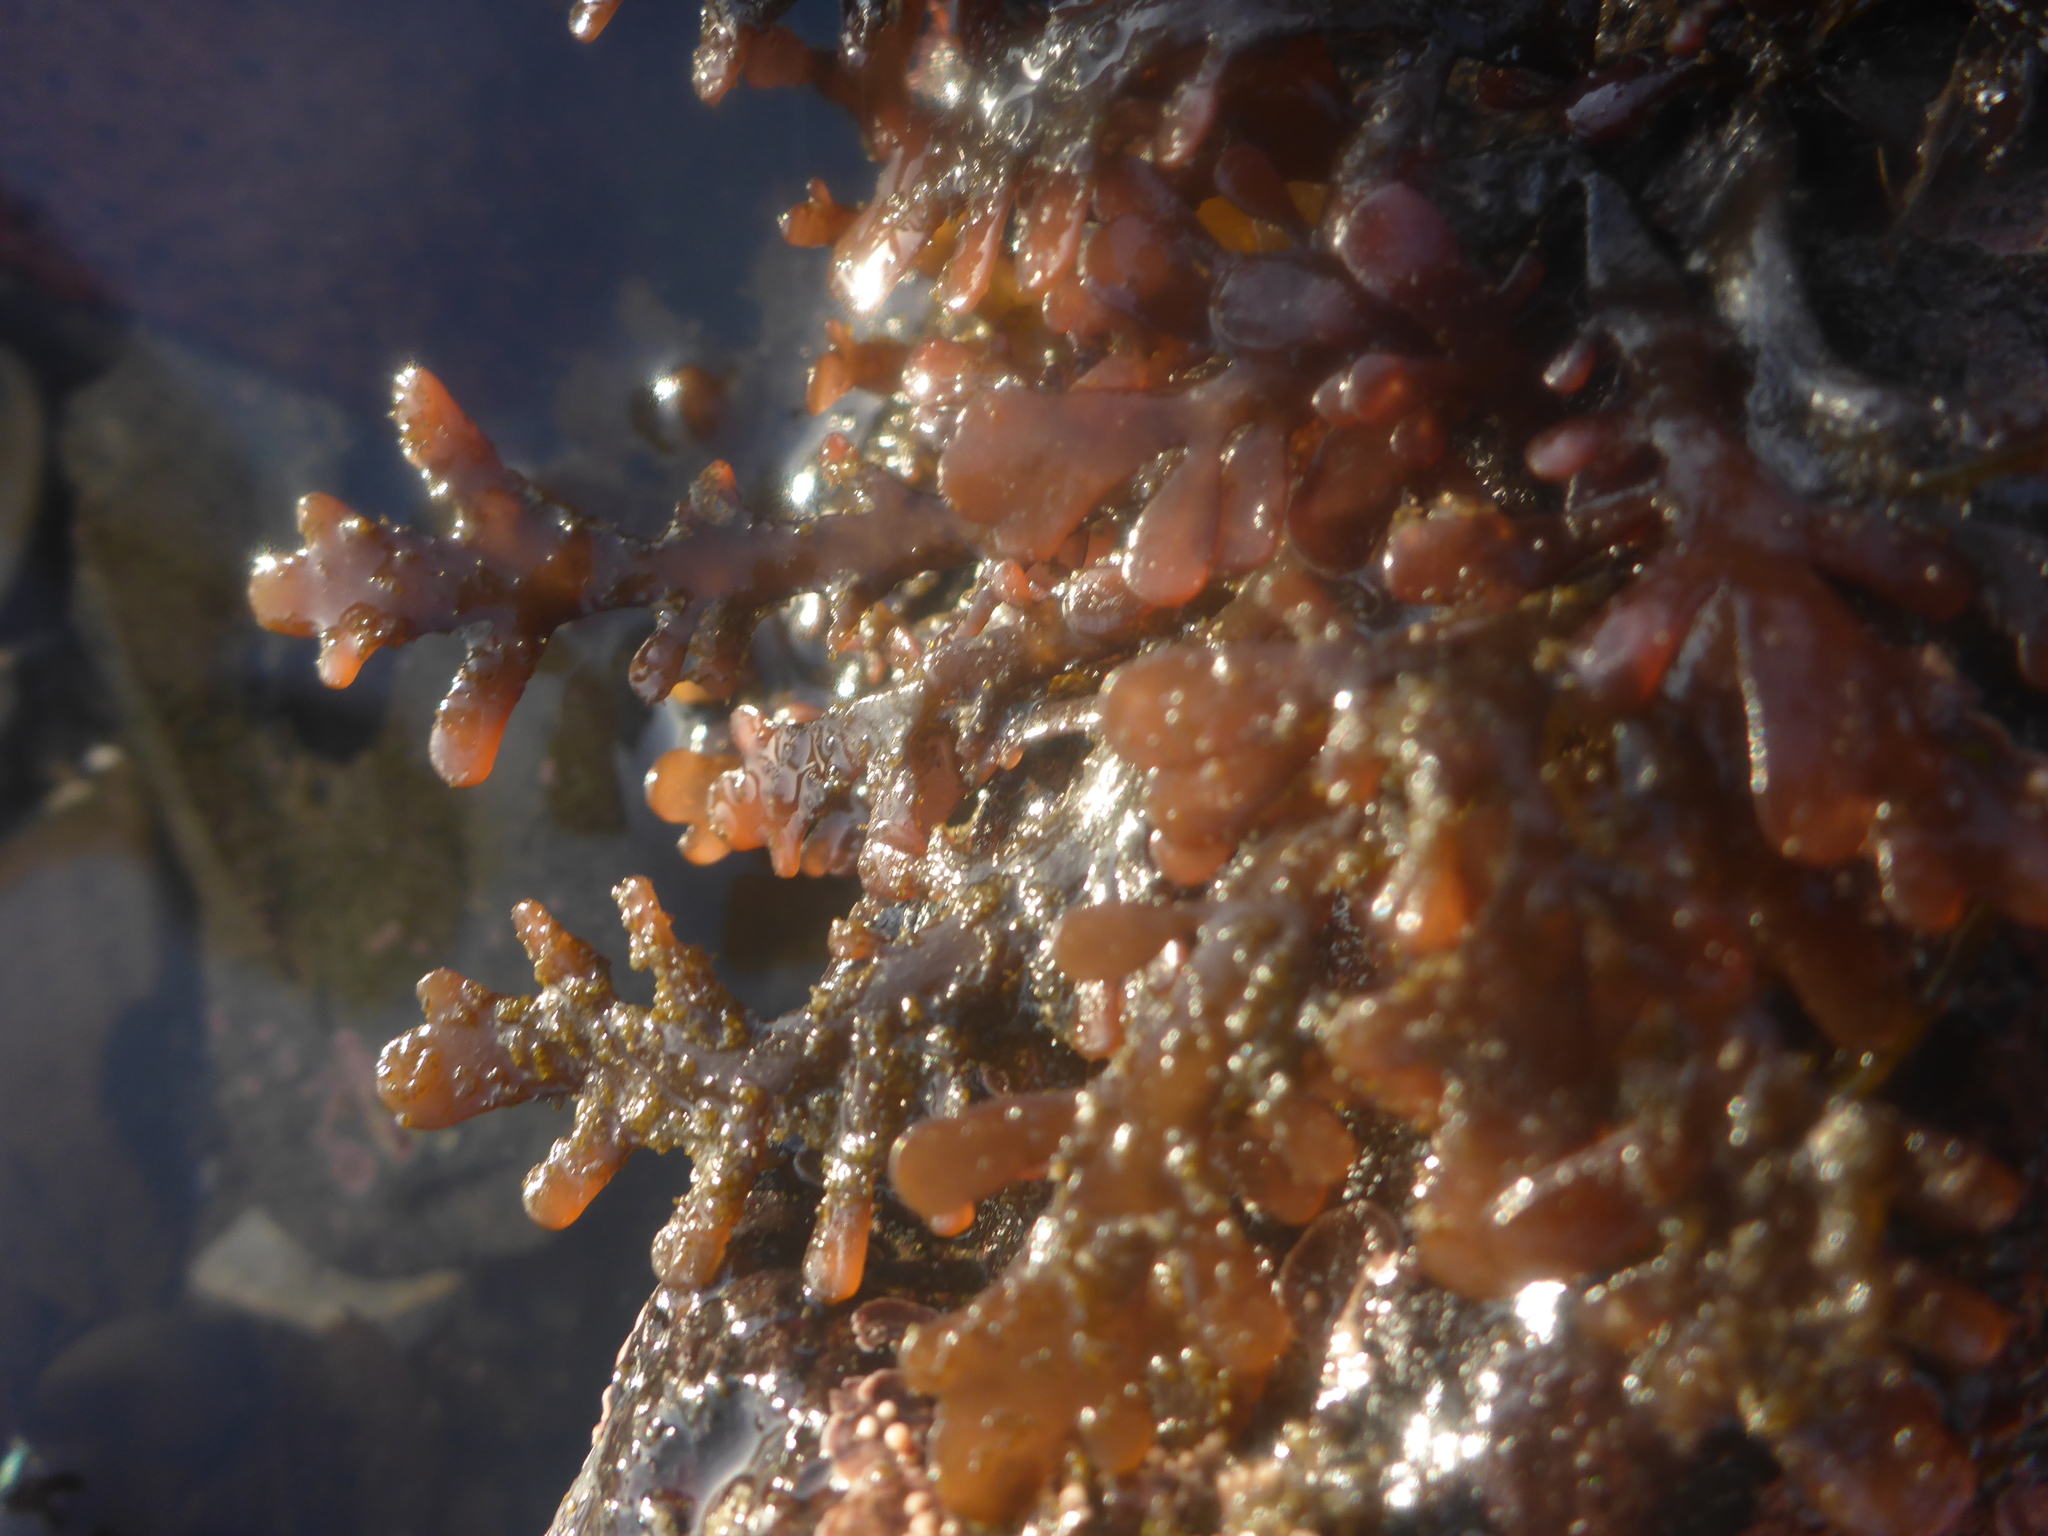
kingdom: Plantae
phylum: Rhodophyta
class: Florideophyceae
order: Ceramiales
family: Rhodomelaceae
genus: Osmundea
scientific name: Osmundea spectabilis
